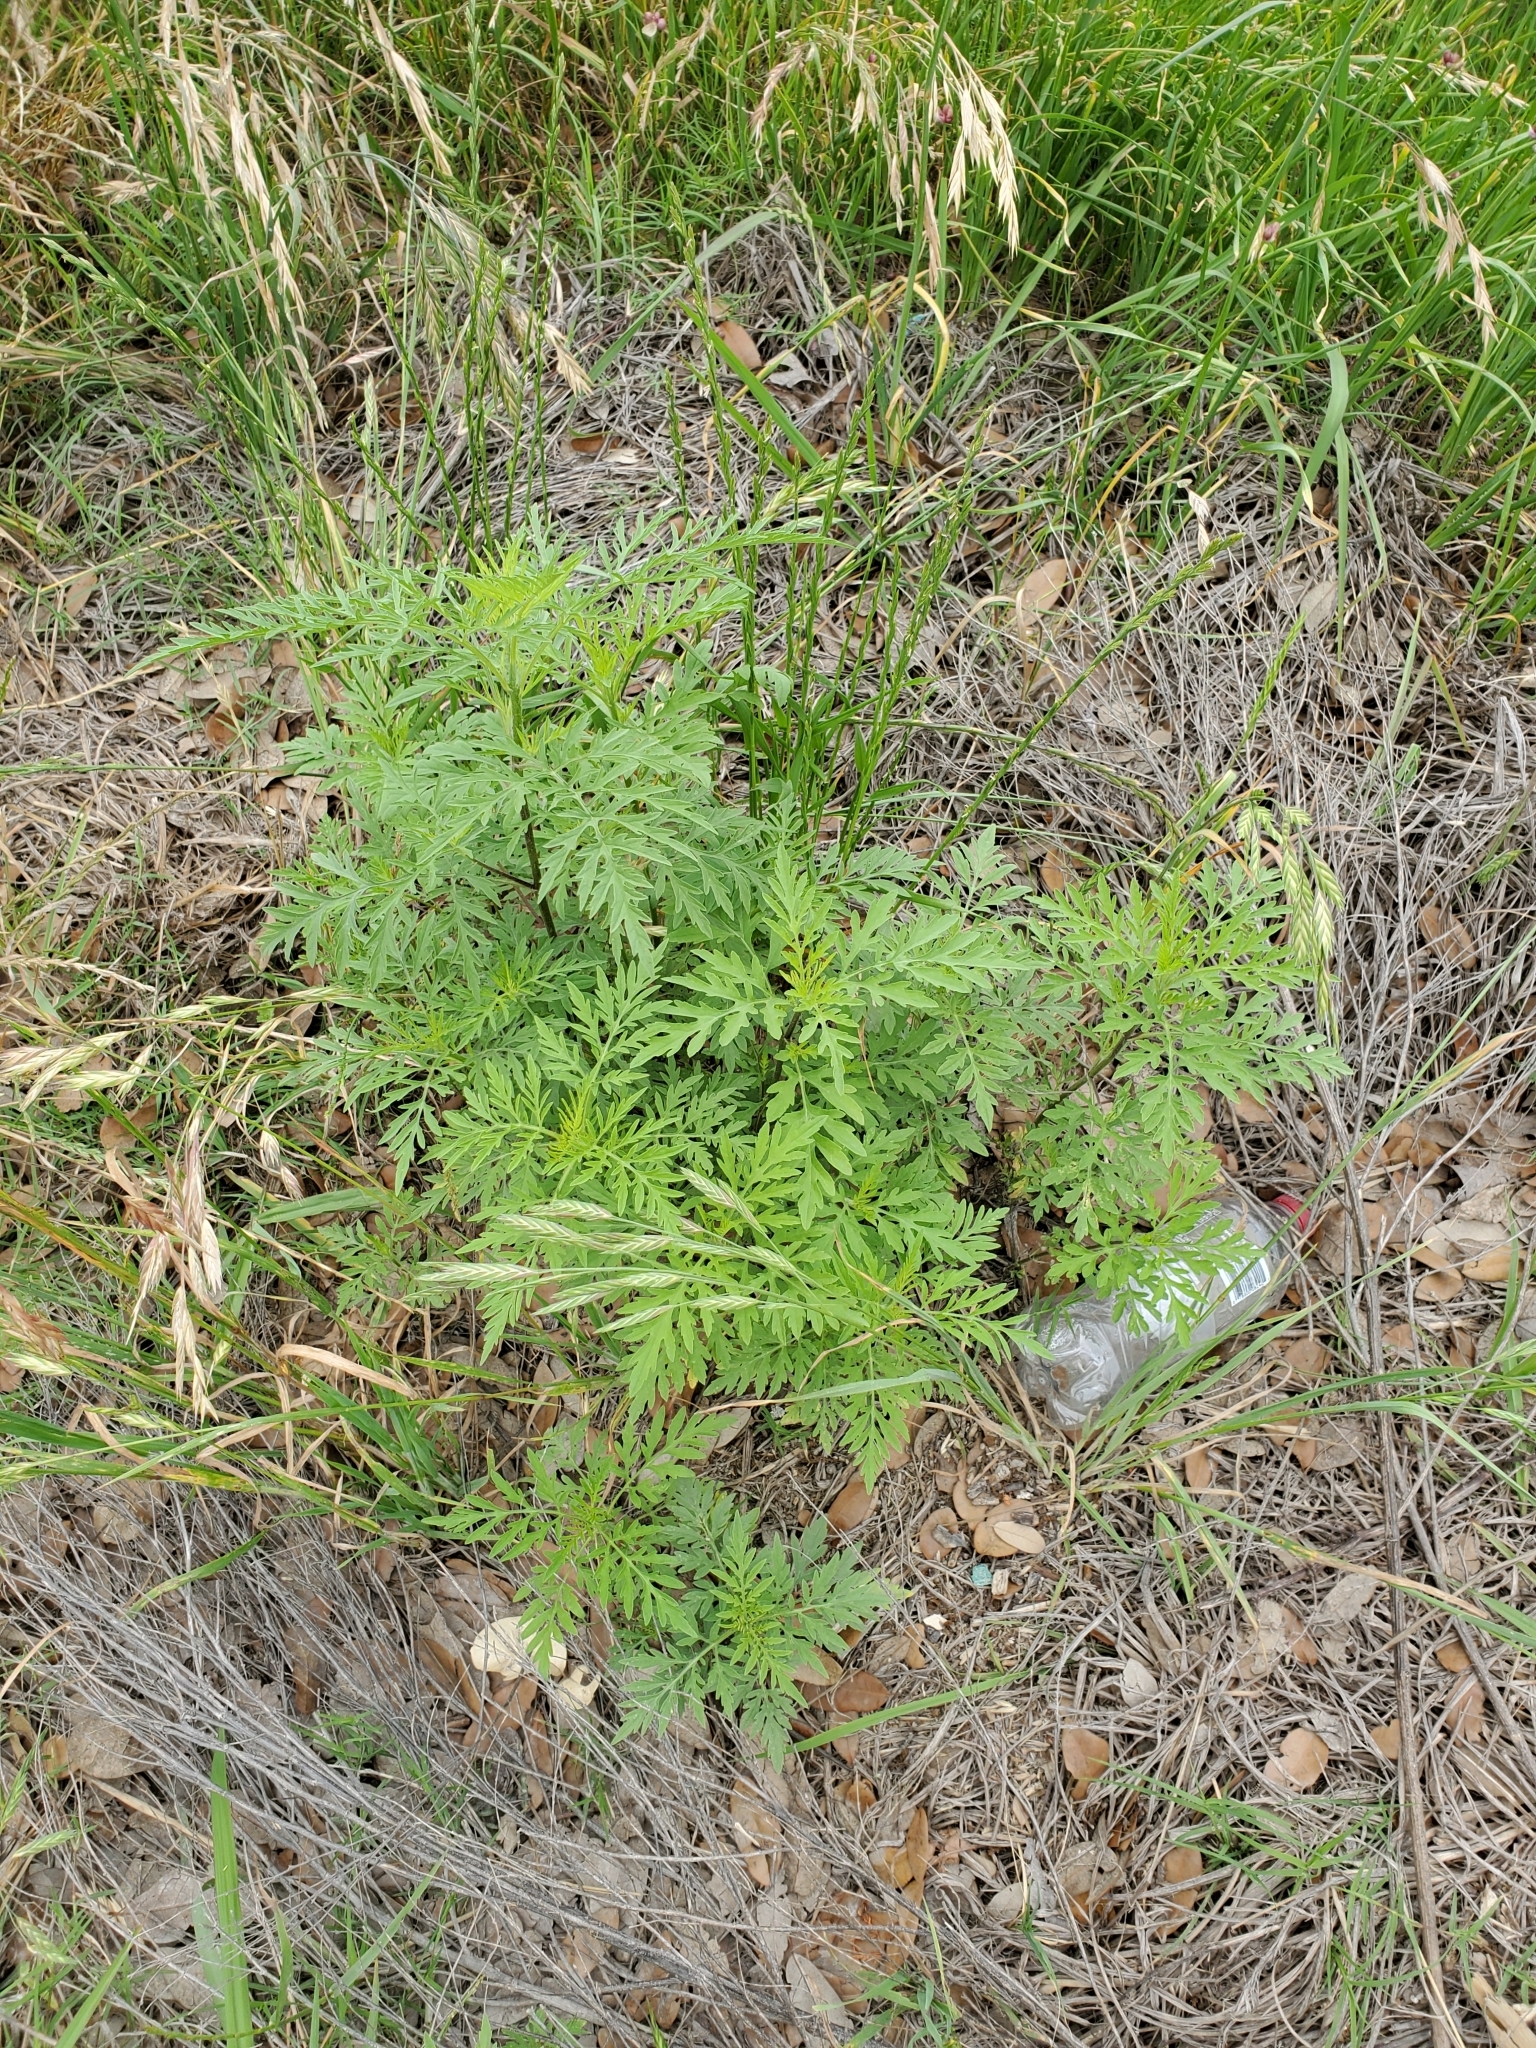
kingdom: Plantae
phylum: Tracheophyta
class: Magnoliopsida
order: Asterales
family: Asteraceae
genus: Ambrosia
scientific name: Ambrosia psilostachya
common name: Perennial ragweed
